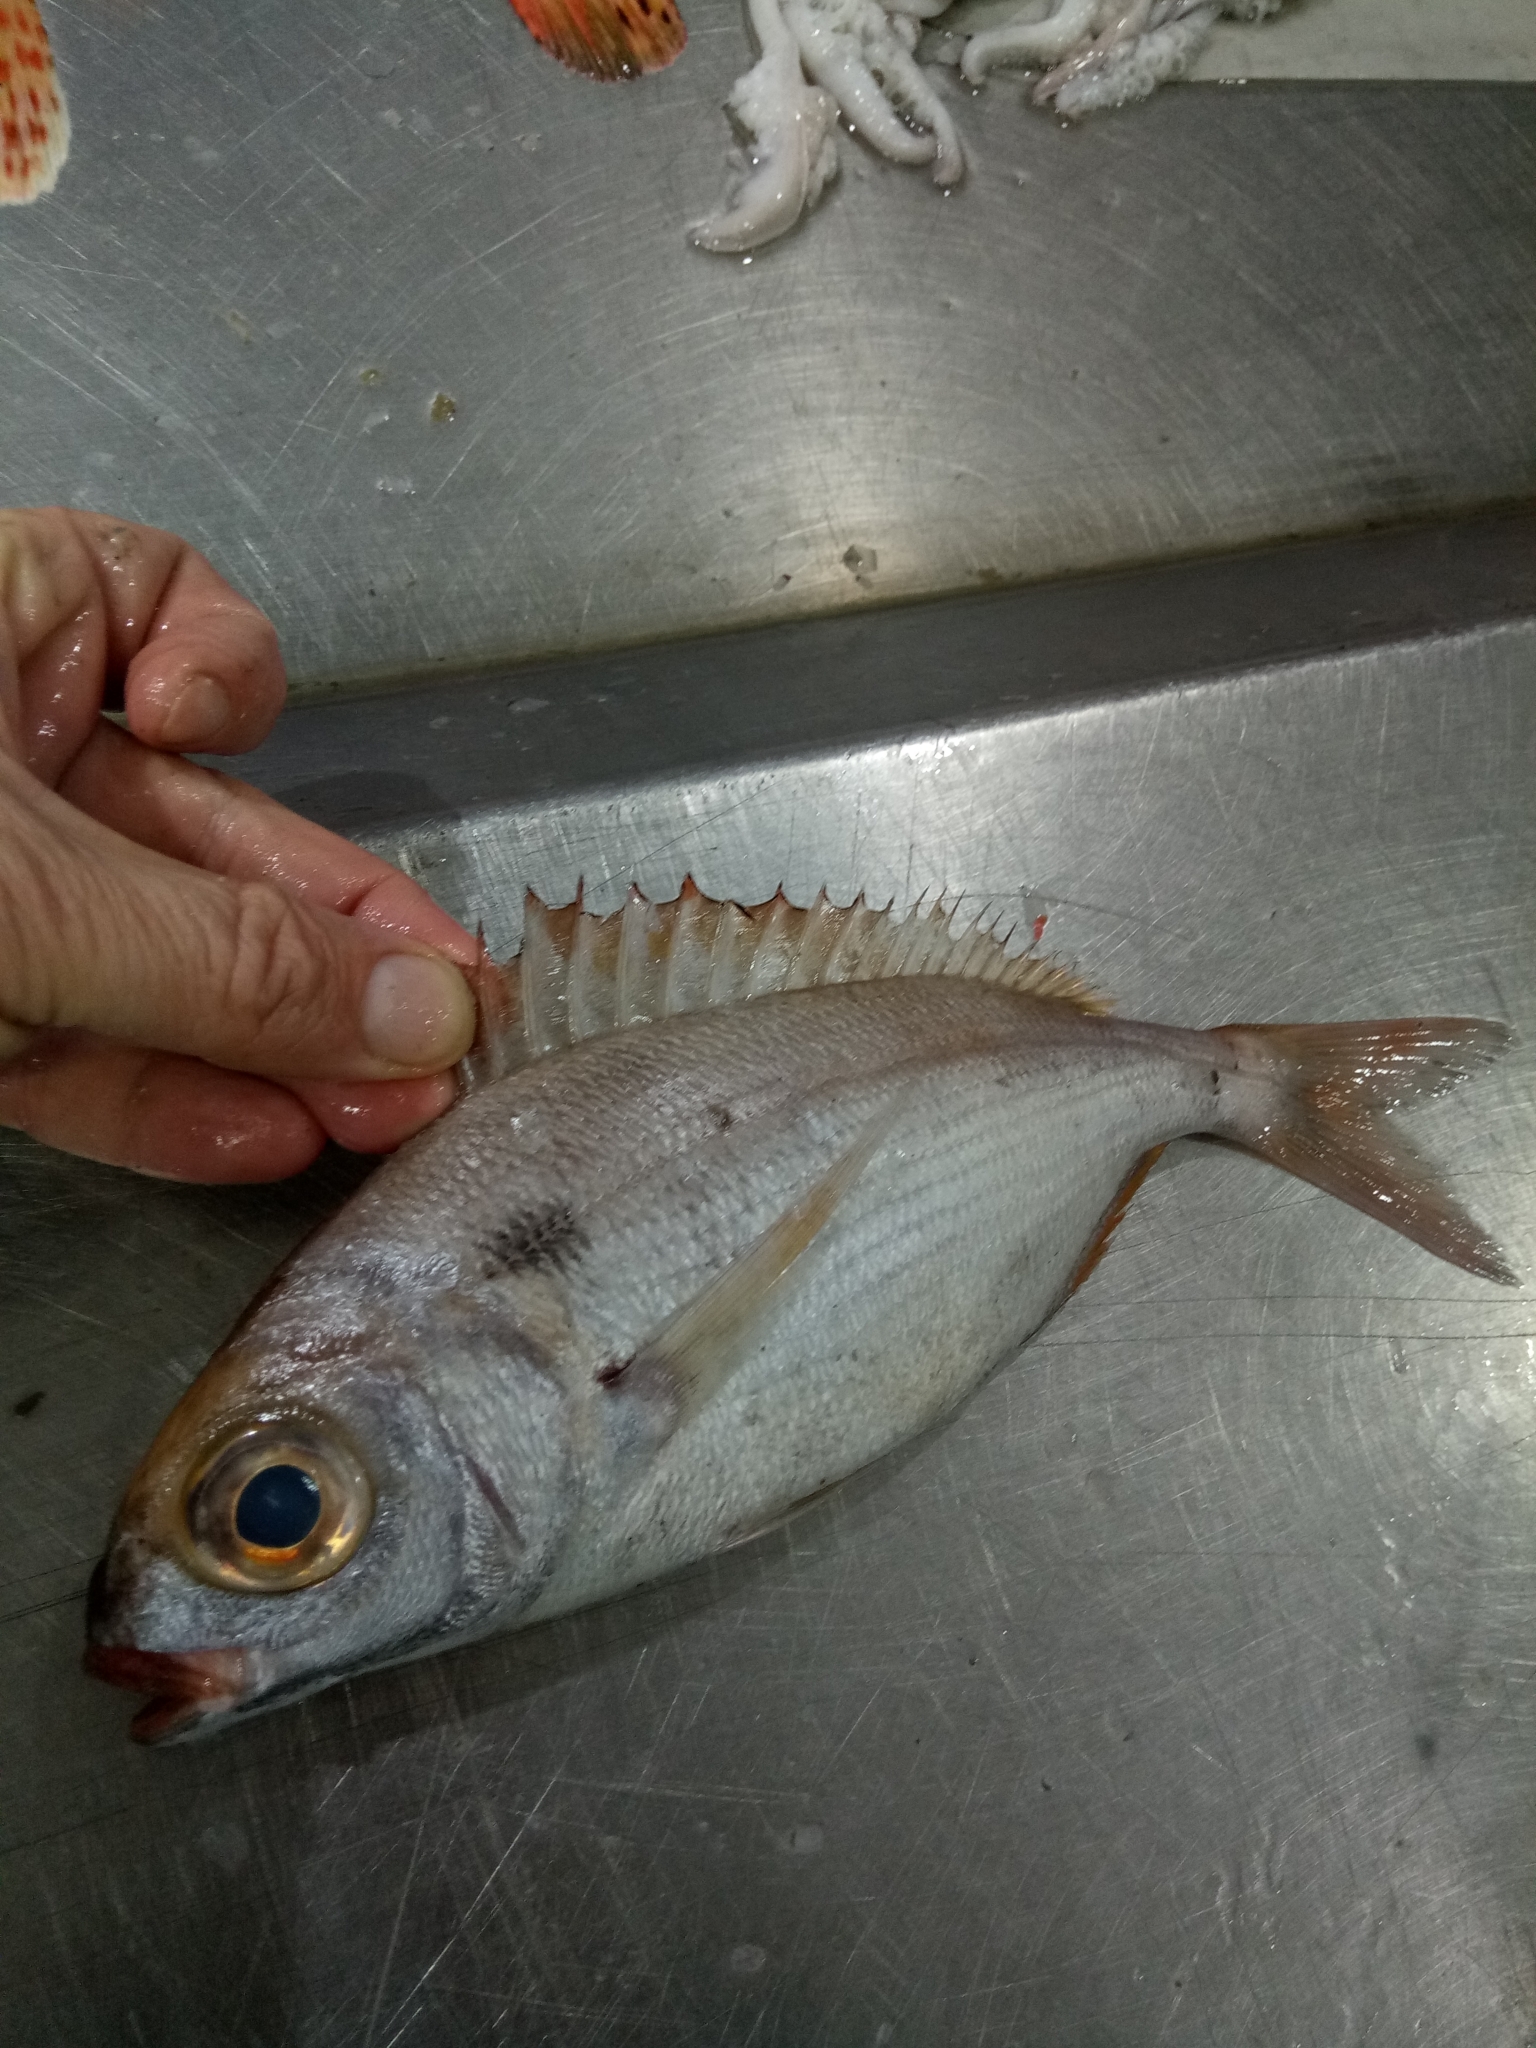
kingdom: Animalia
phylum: Chordata
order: Perciformes
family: Sparidae
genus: Pagellus
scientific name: Pagellus bogaraveo
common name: Red sea-bream
